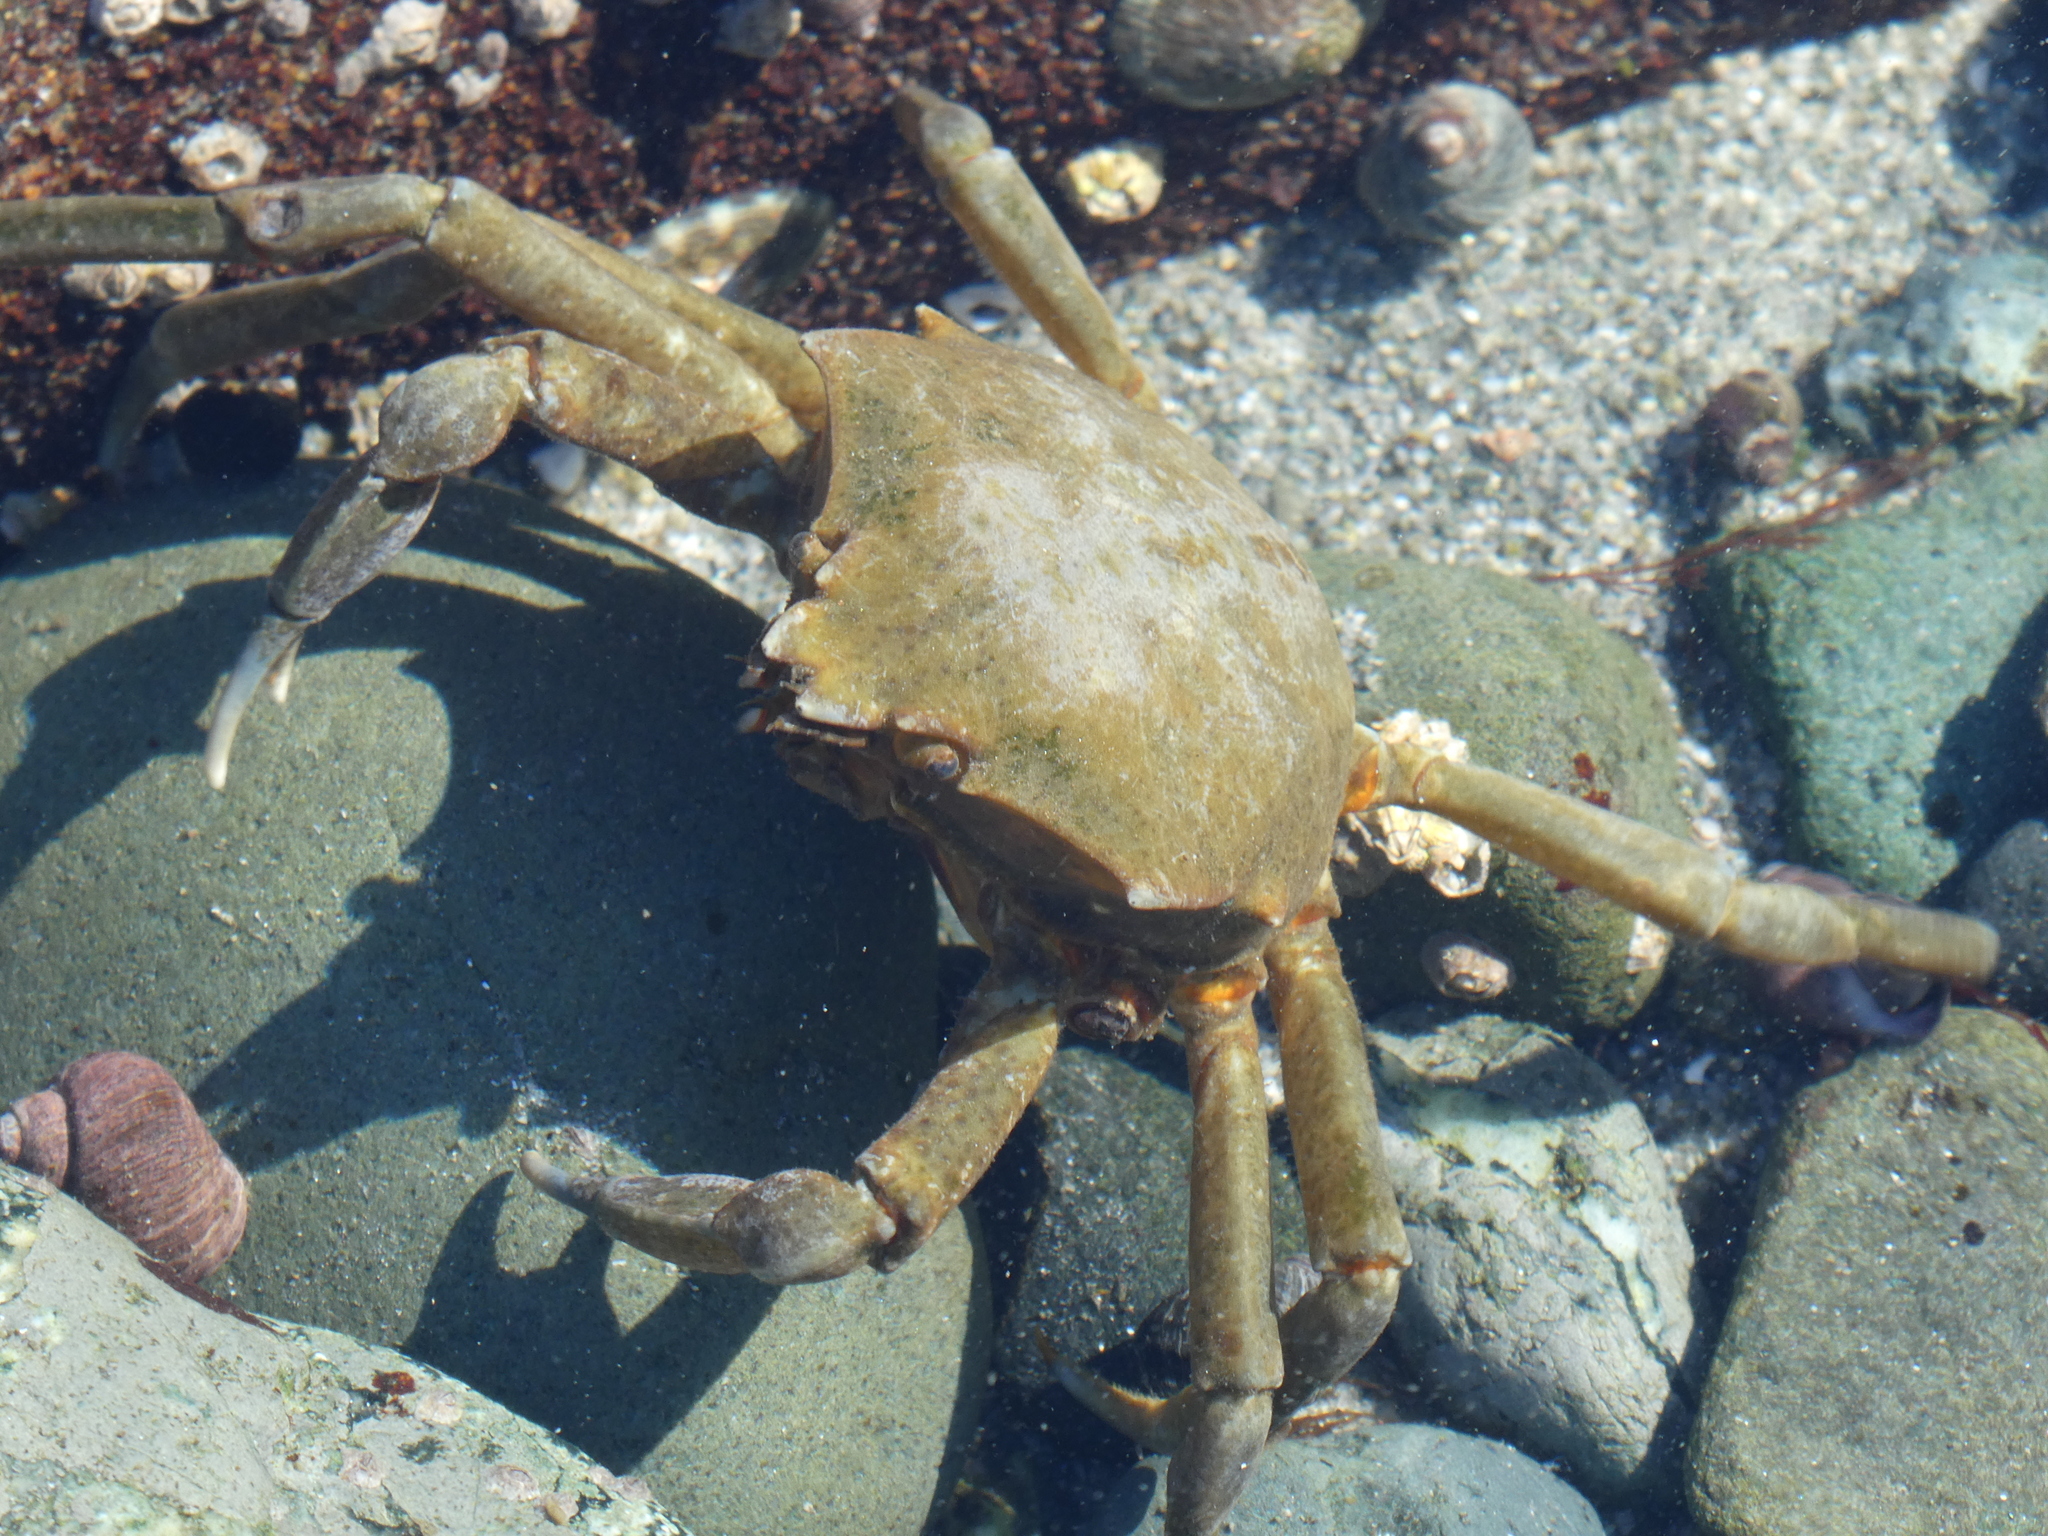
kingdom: Animalia
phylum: Arthropoda
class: Malacostraca
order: Decapoda
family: Epialtidae
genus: Pugettia
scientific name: Pugettia producta
